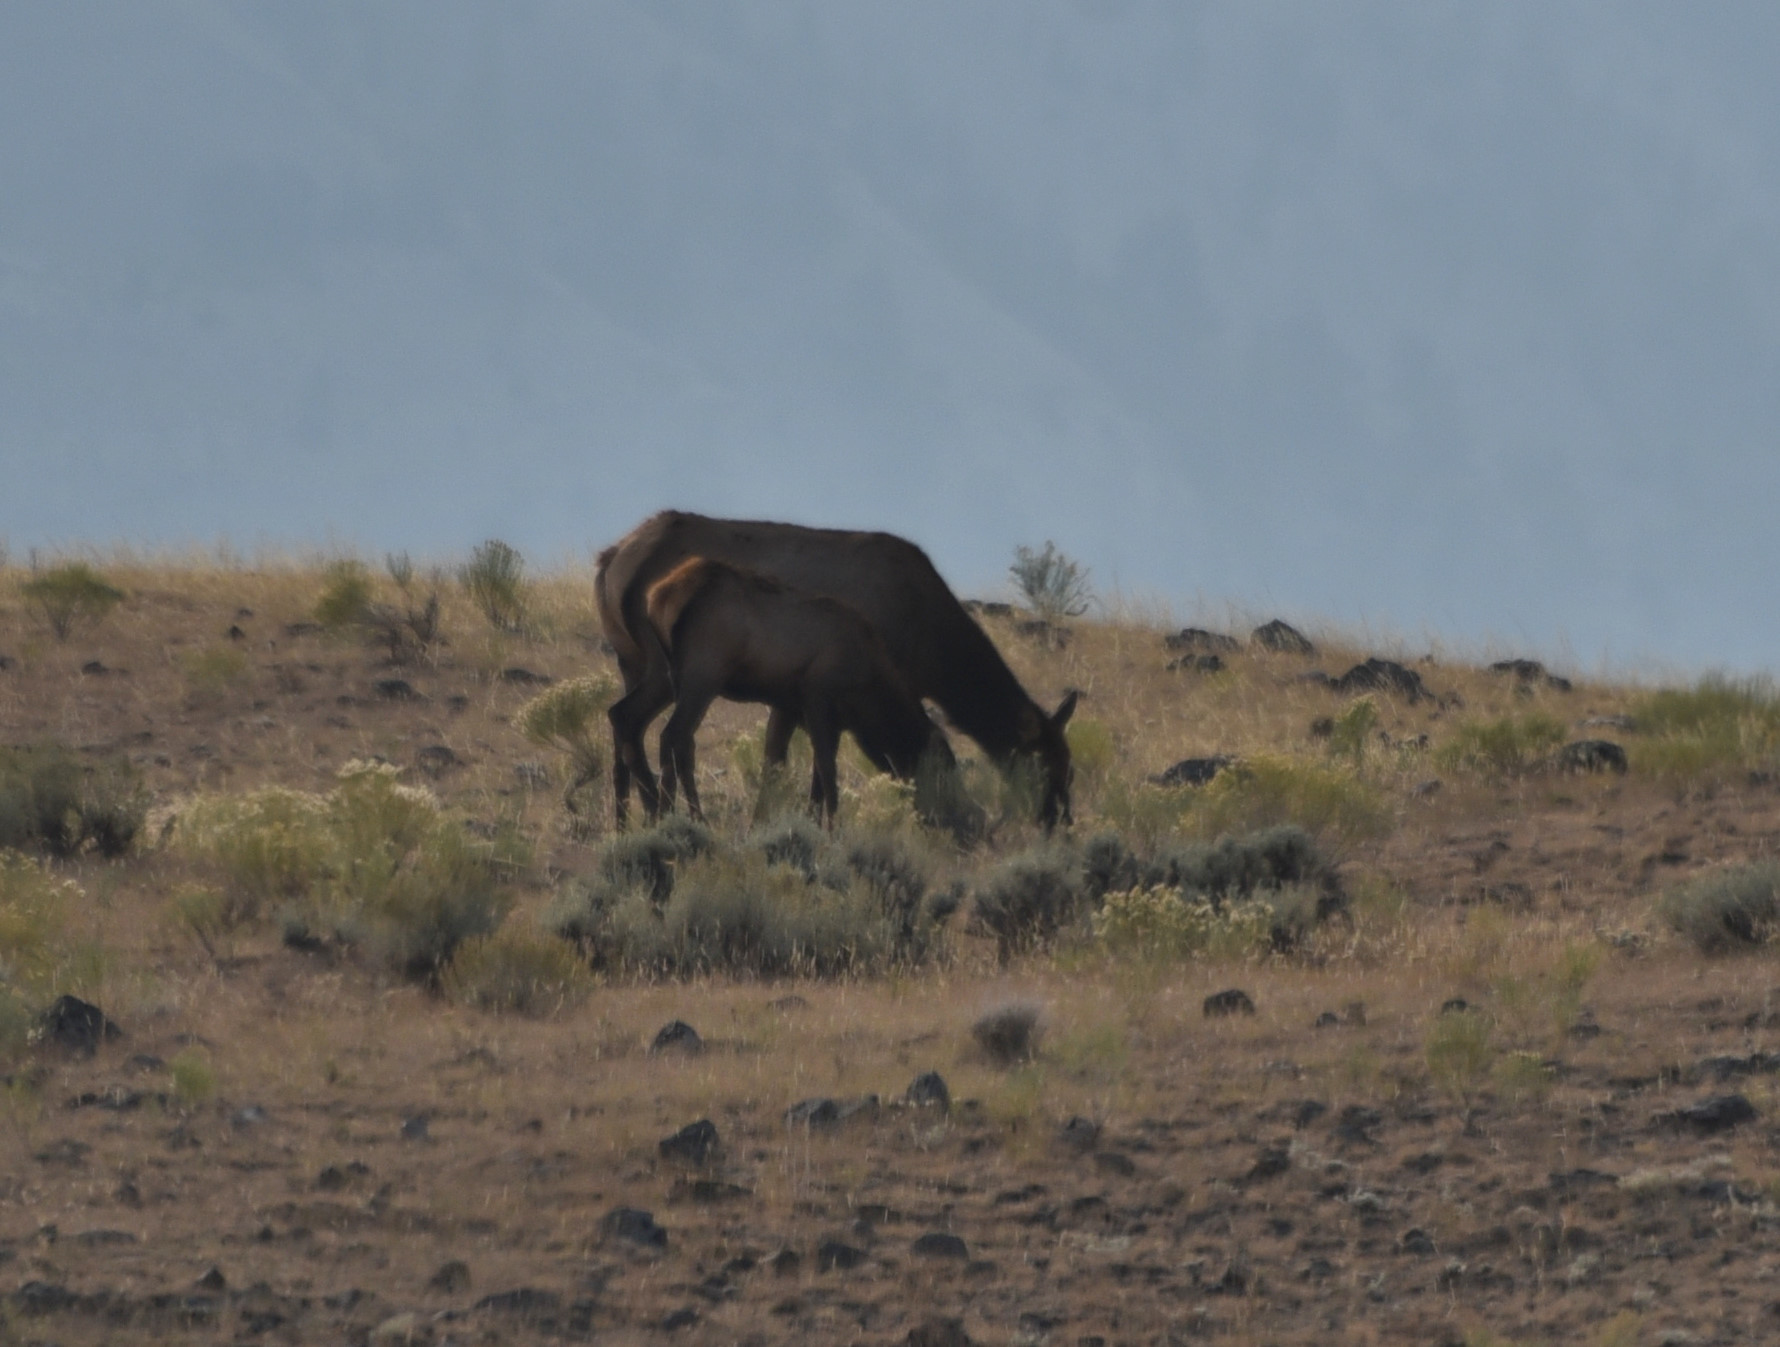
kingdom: Animalia
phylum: Chordata
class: Mammalia
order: Artiodactyla
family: Cervidae
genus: Cervus
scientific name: Cervus elaphus
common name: Red deer
